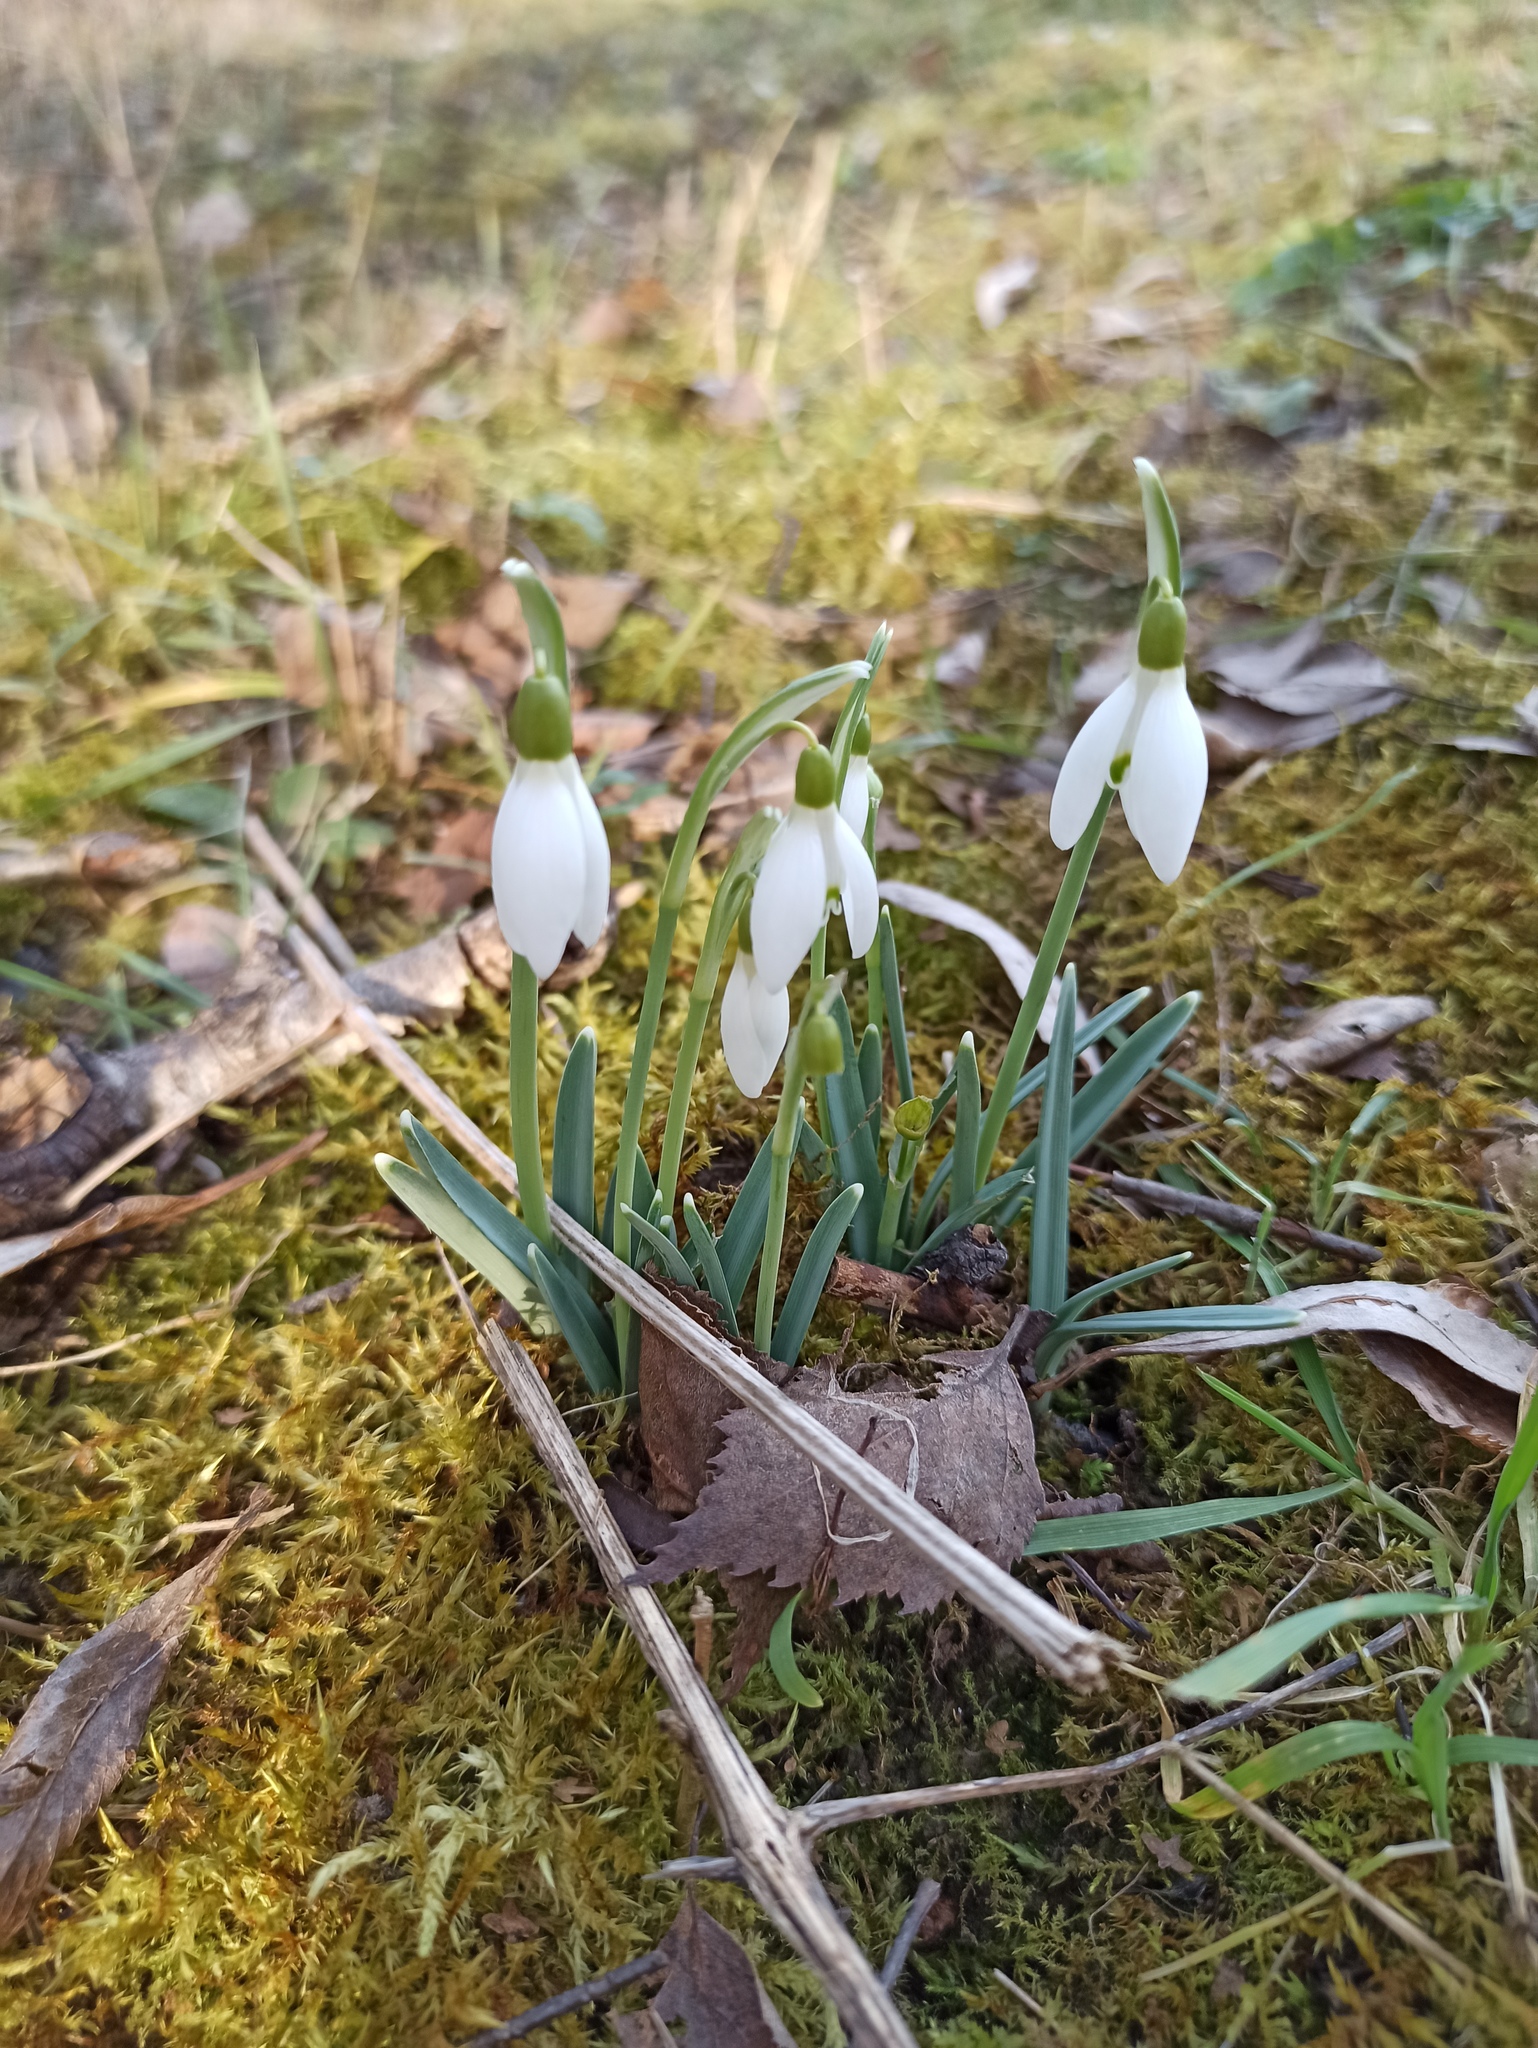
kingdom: Plantae
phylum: Tracheophyta
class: Liliopsida
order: Asparagales
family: Amaryllidaceae
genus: Galanthus
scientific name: Galanthus nivalis
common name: Snowdrop
